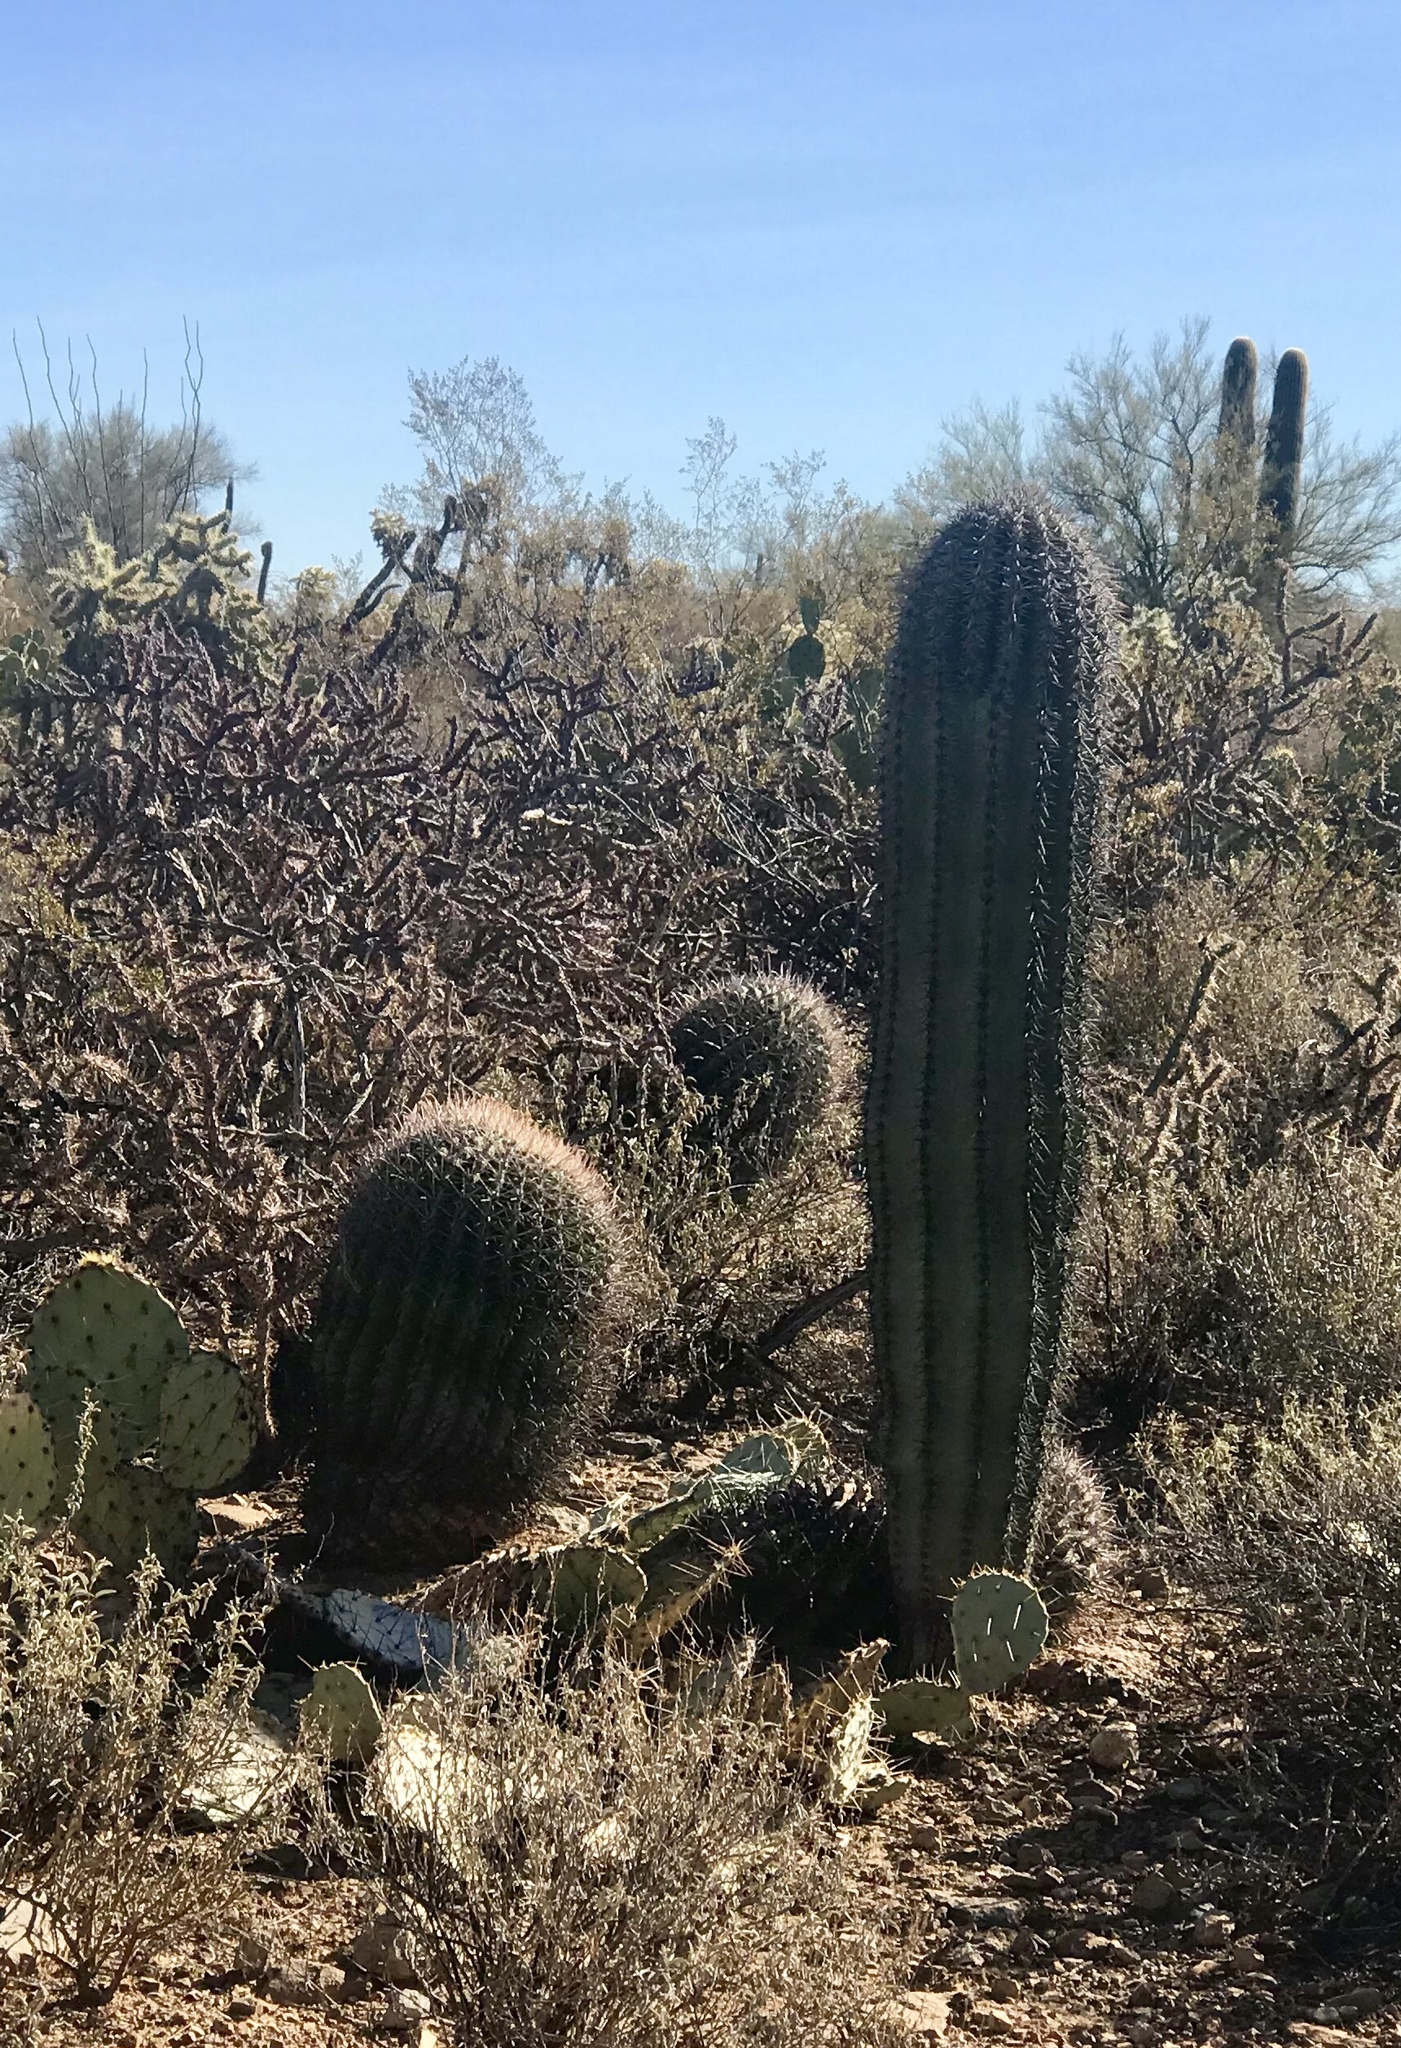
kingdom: Plantae
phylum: Tracheophyta
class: Magnoliopsida
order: Caryophyllales
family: Cactaceae
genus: Carnegiea
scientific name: Carnegiea gigantea
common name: Saguaro
